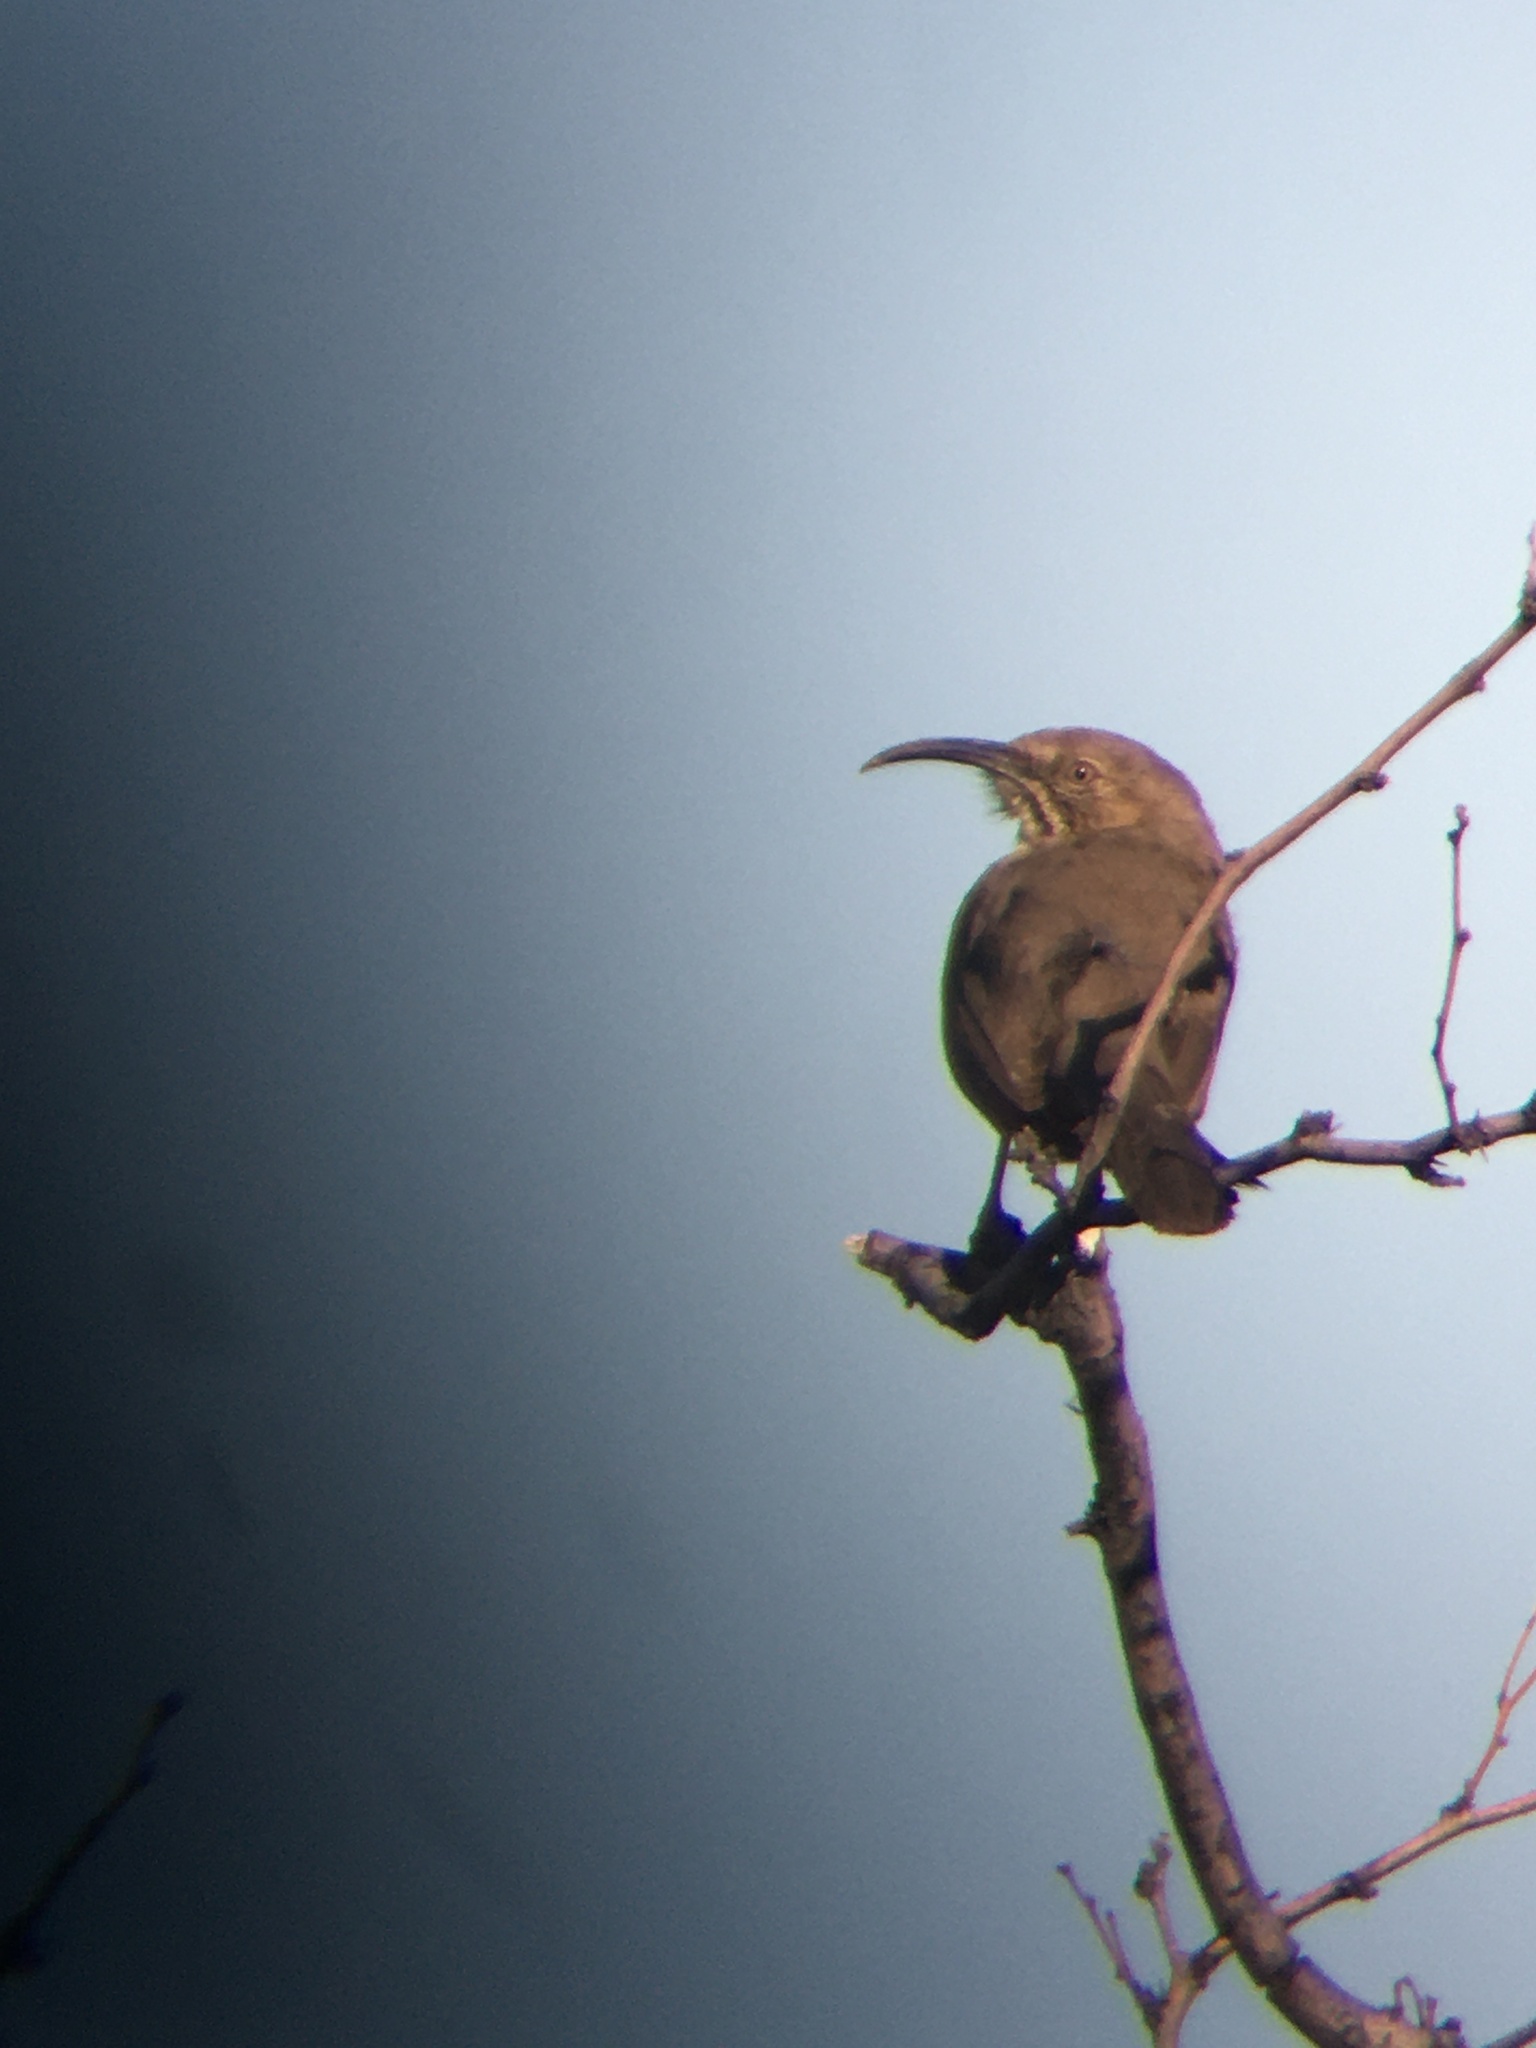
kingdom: Animalia
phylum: Chordata
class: Aves
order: Passeriformes
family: Mimidae
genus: Toxostoma
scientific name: Toxostoma crissale
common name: Crissal thrasher
